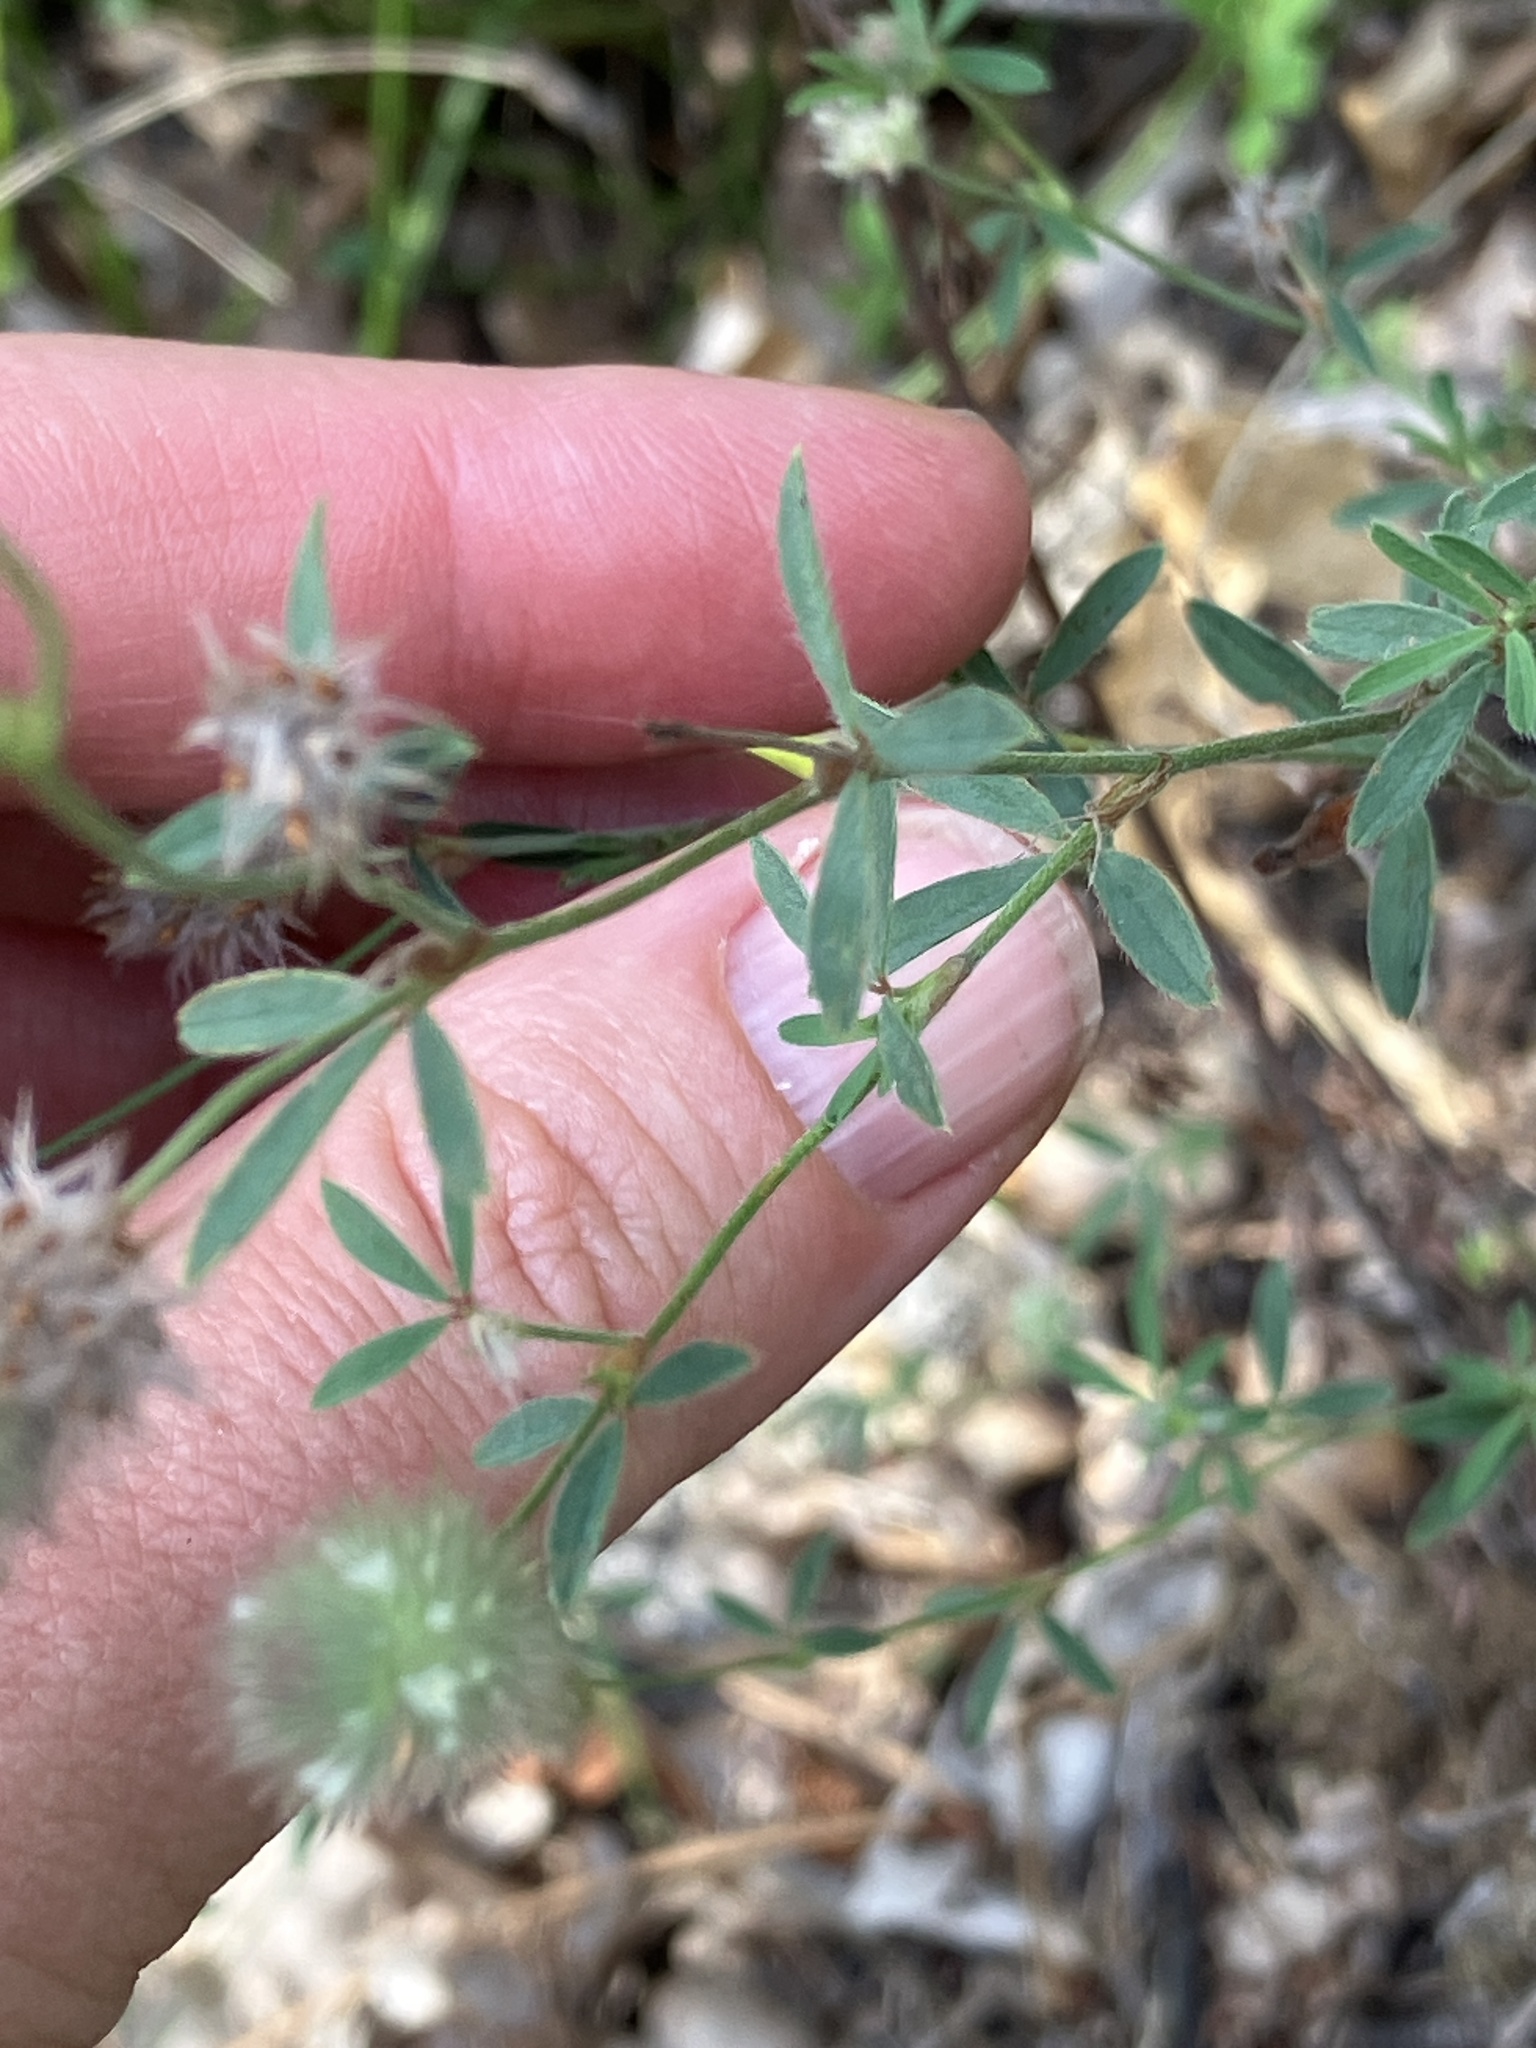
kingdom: Plantae
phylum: Tracheophyta
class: Magnoliopsida
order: Fabales
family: Fabaceae
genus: Trifolium
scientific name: Trifolium arvense
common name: Hare's-foot clover
